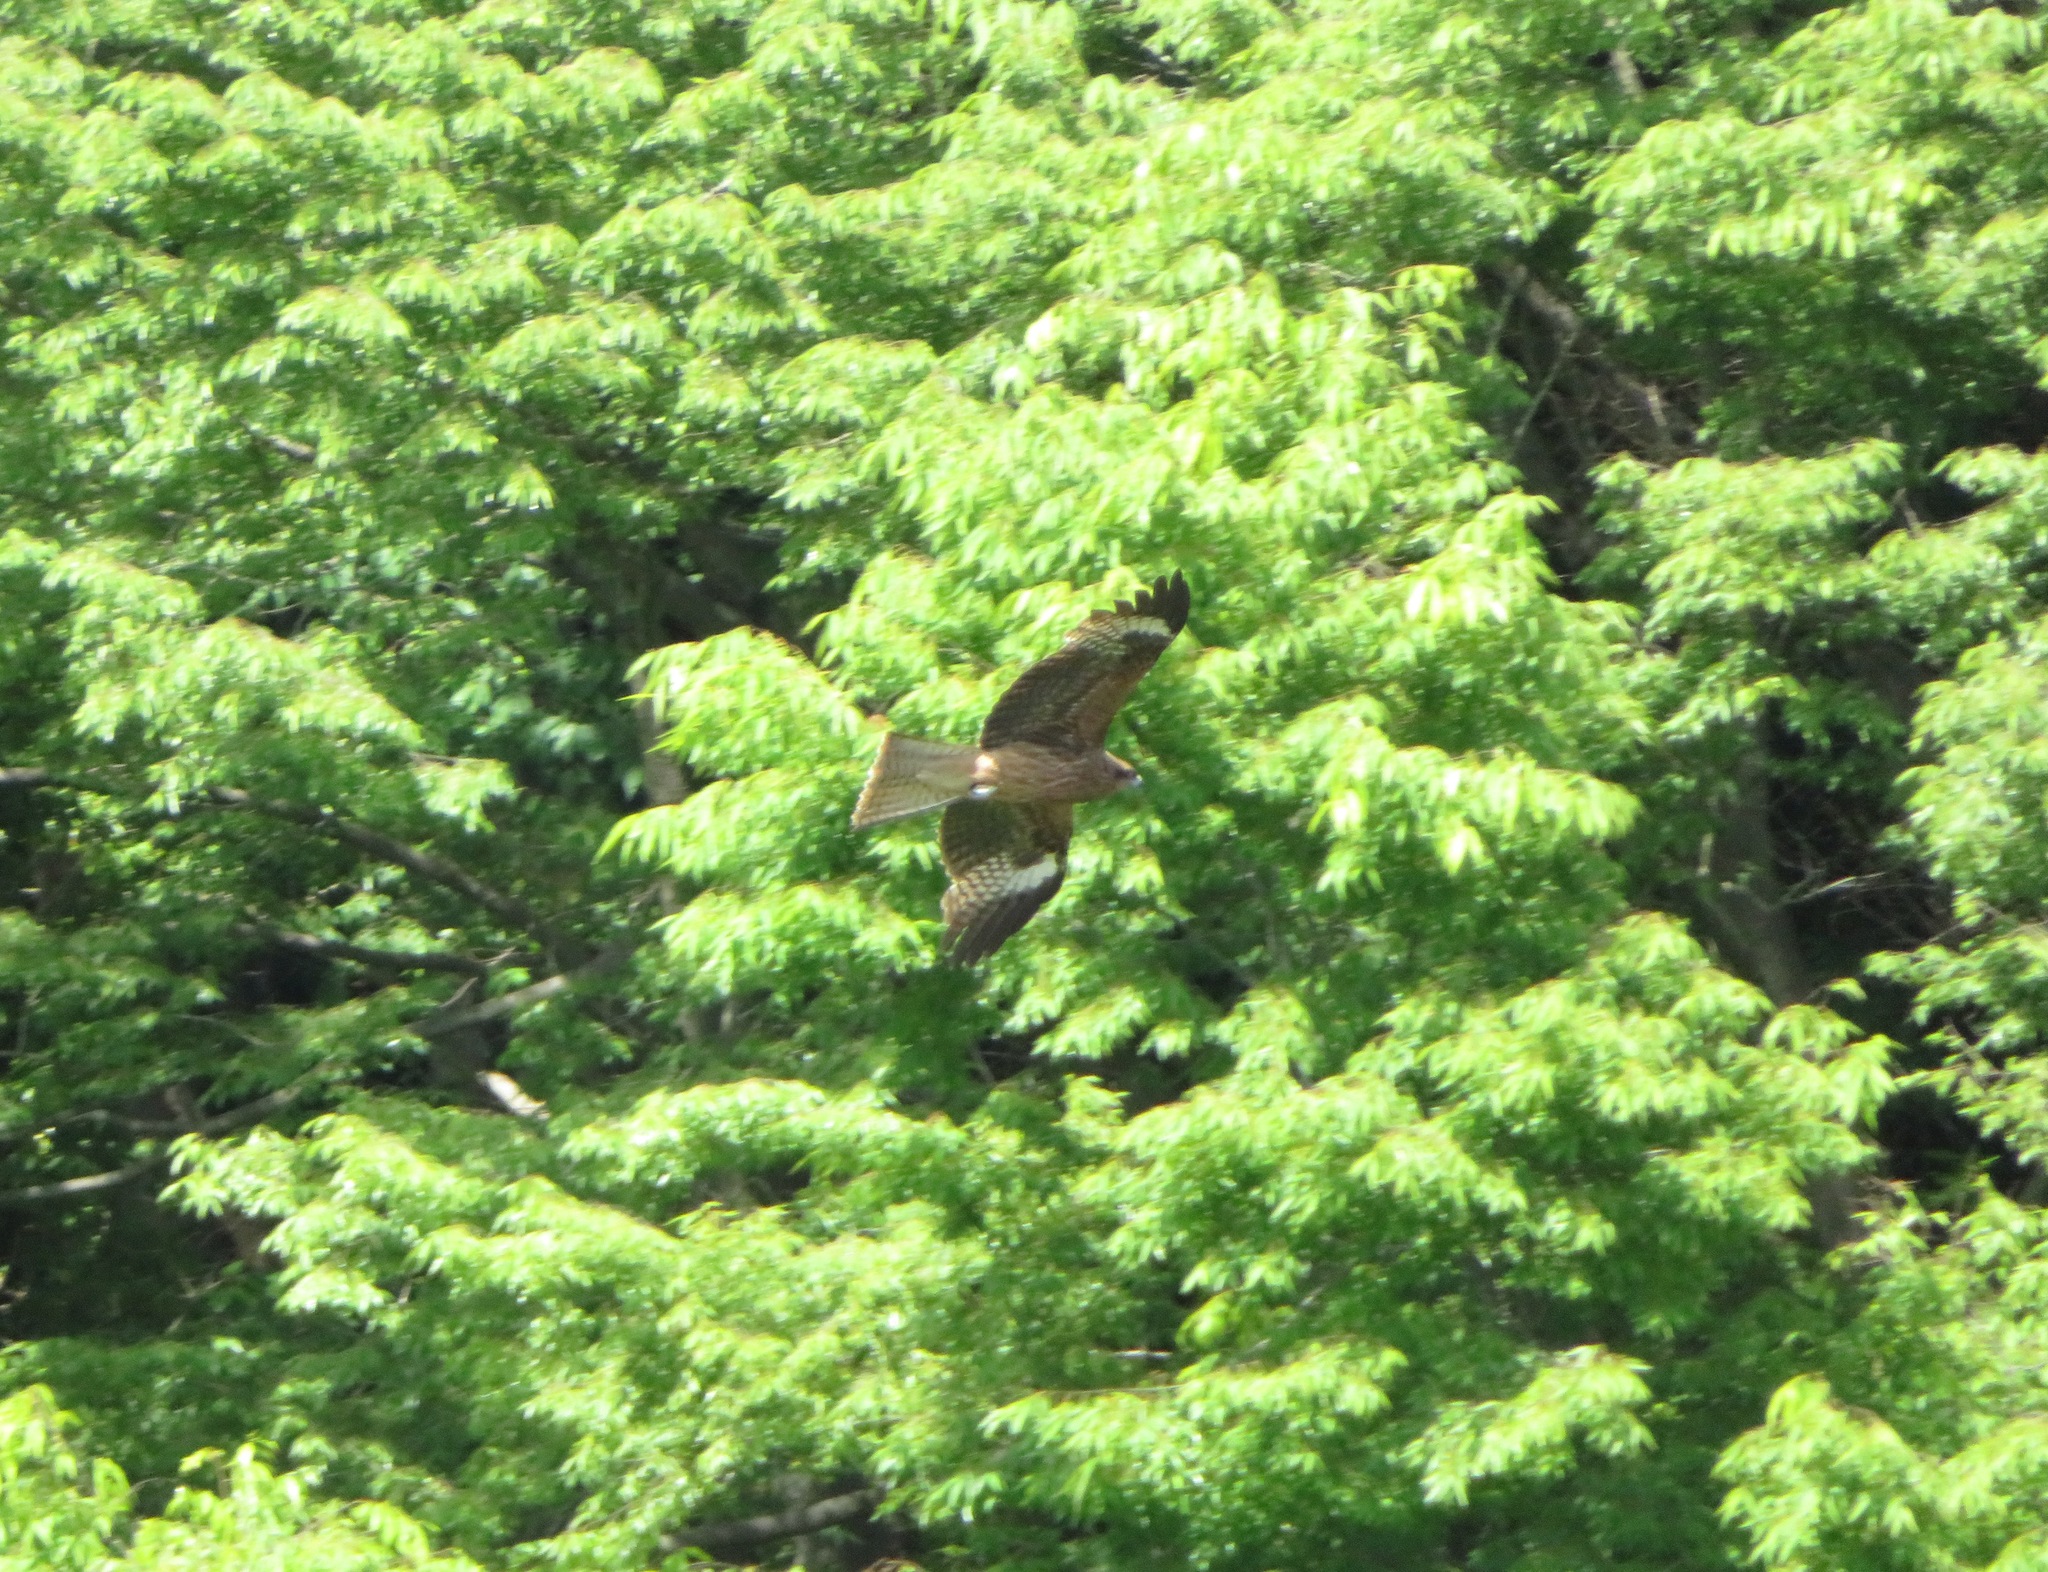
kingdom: Animalia
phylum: Chordata
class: Aves
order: Accipitriformes
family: Accipitridae
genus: Milvus
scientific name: Milvus migrans
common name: Black kite
